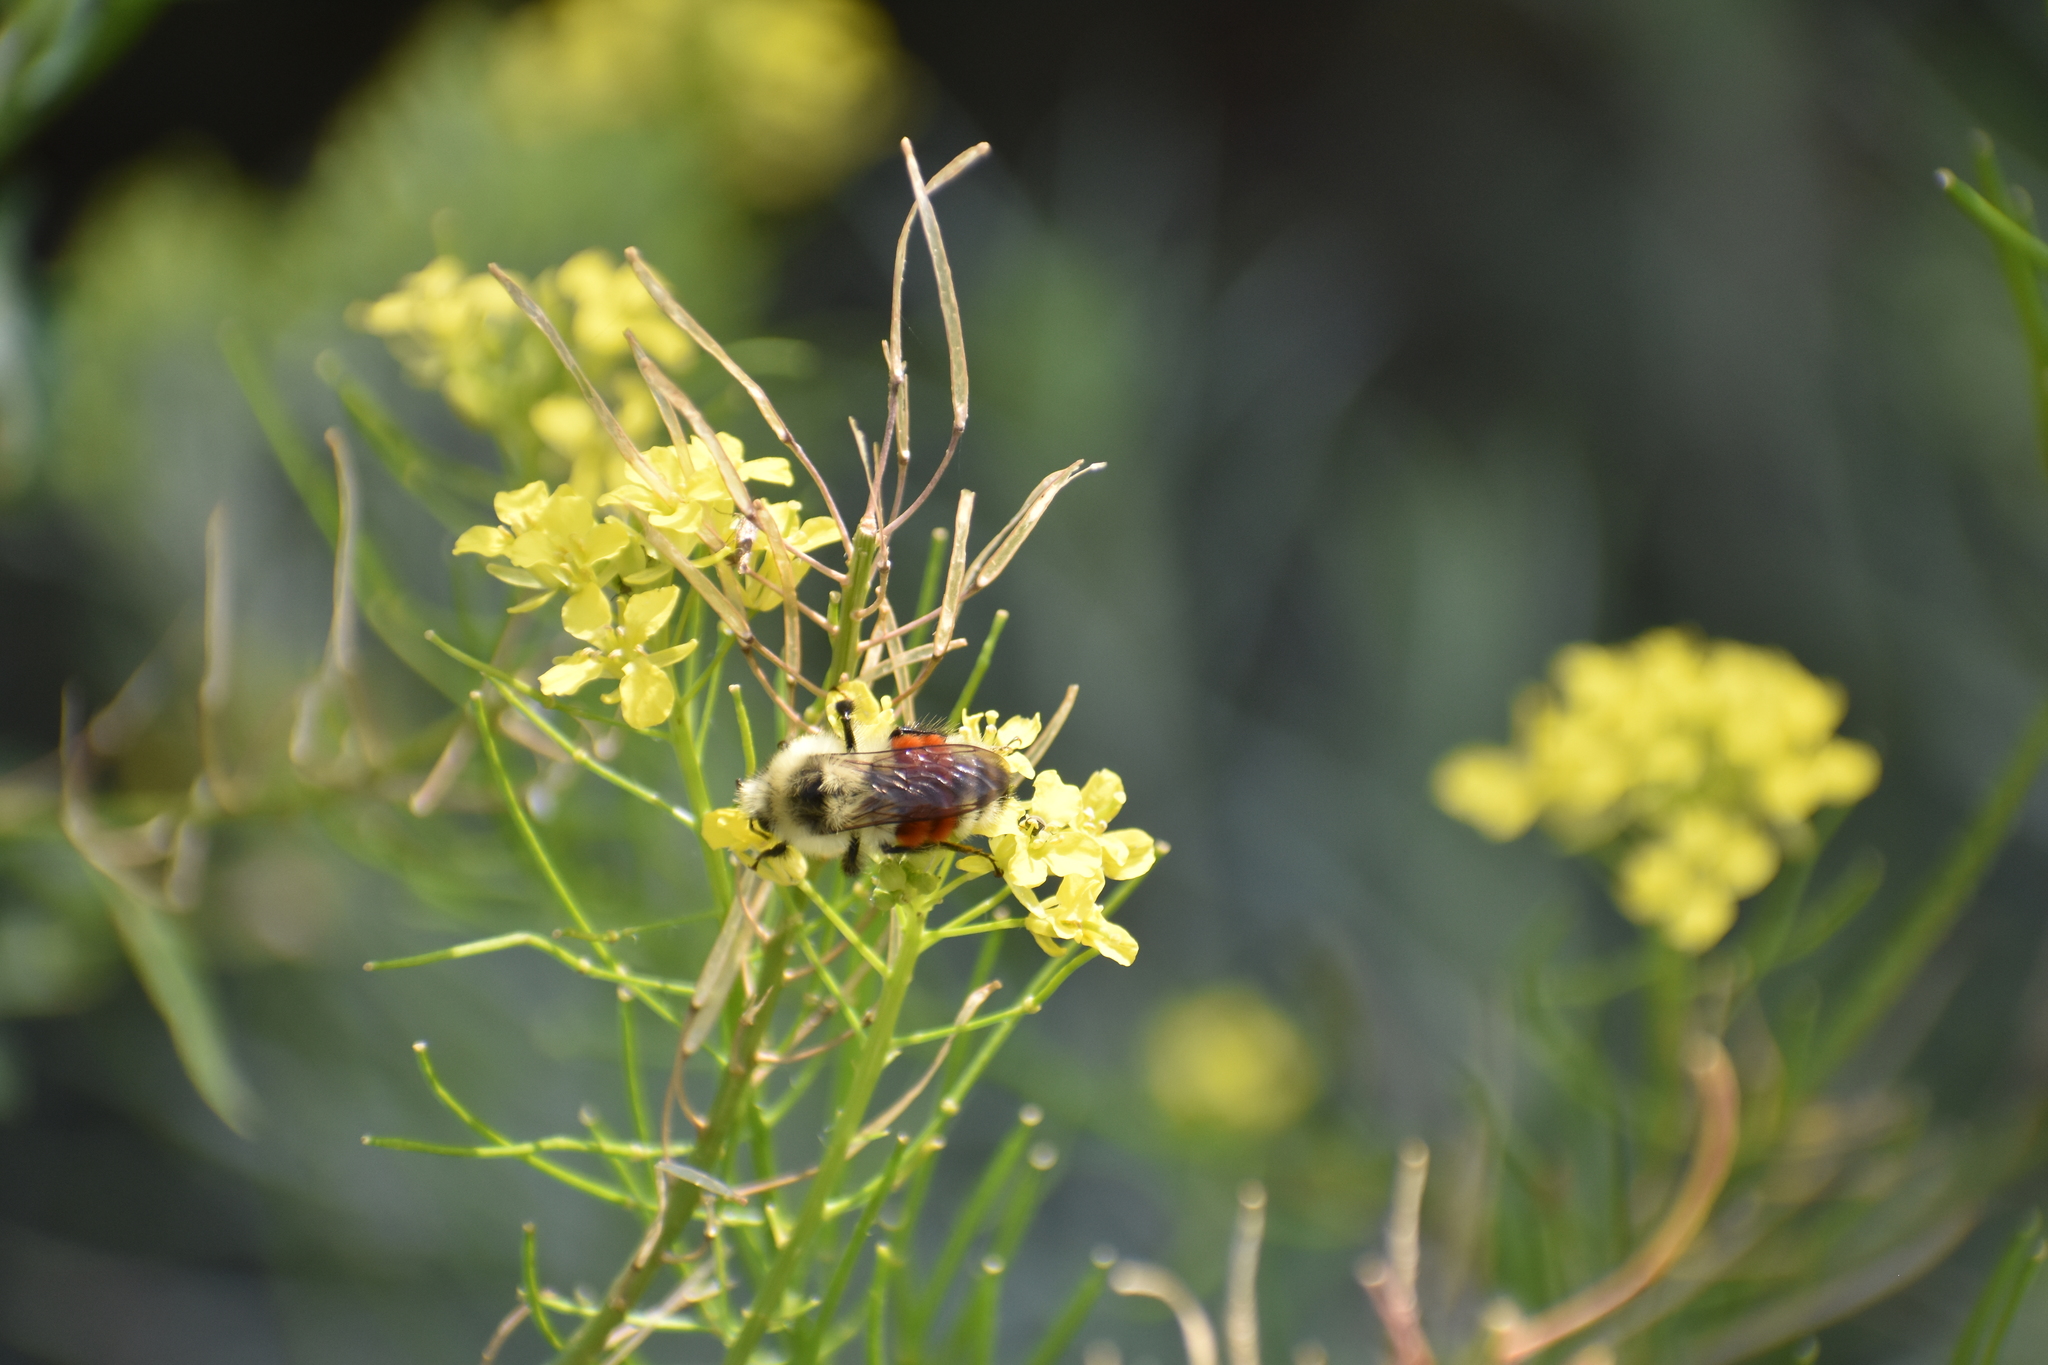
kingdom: Animalia
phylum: Arthropoda
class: Insecta
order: Hymenoptera
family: Apidae
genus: Bombus
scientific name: Bombus huntii
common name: Hunt bumble bee
